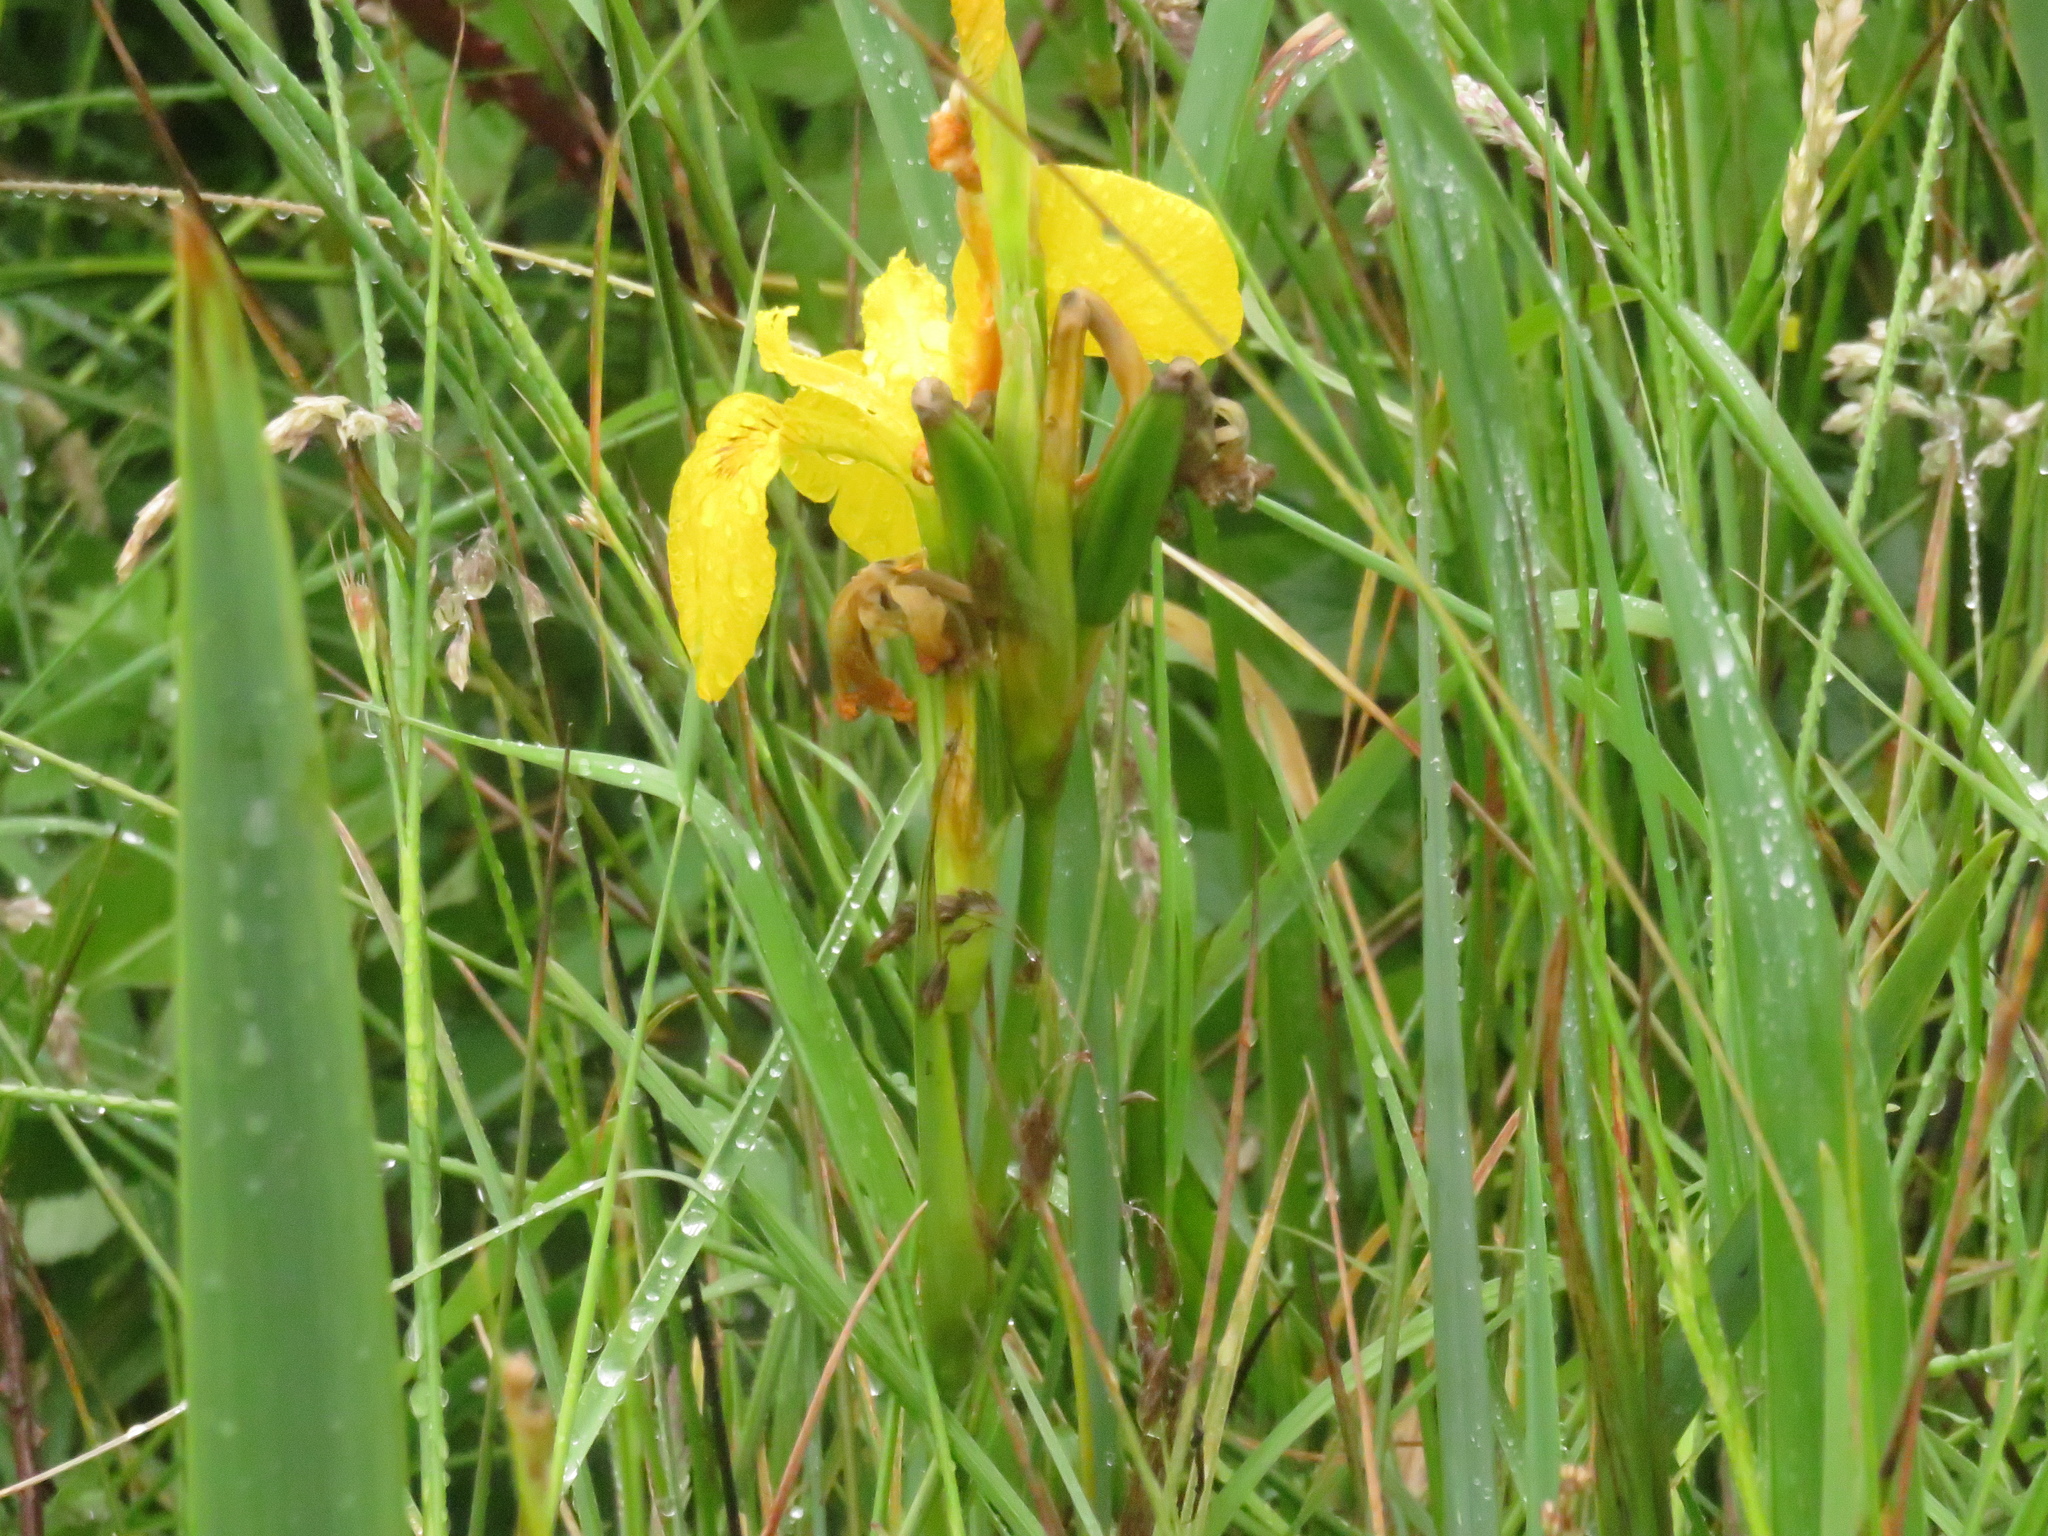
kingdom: Plantae
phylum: Tracheophyta
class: Liliopsida
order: Asparagales
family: Iridaceae
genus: Iris
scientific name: Iris pseudacorus
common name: Yellow flag
